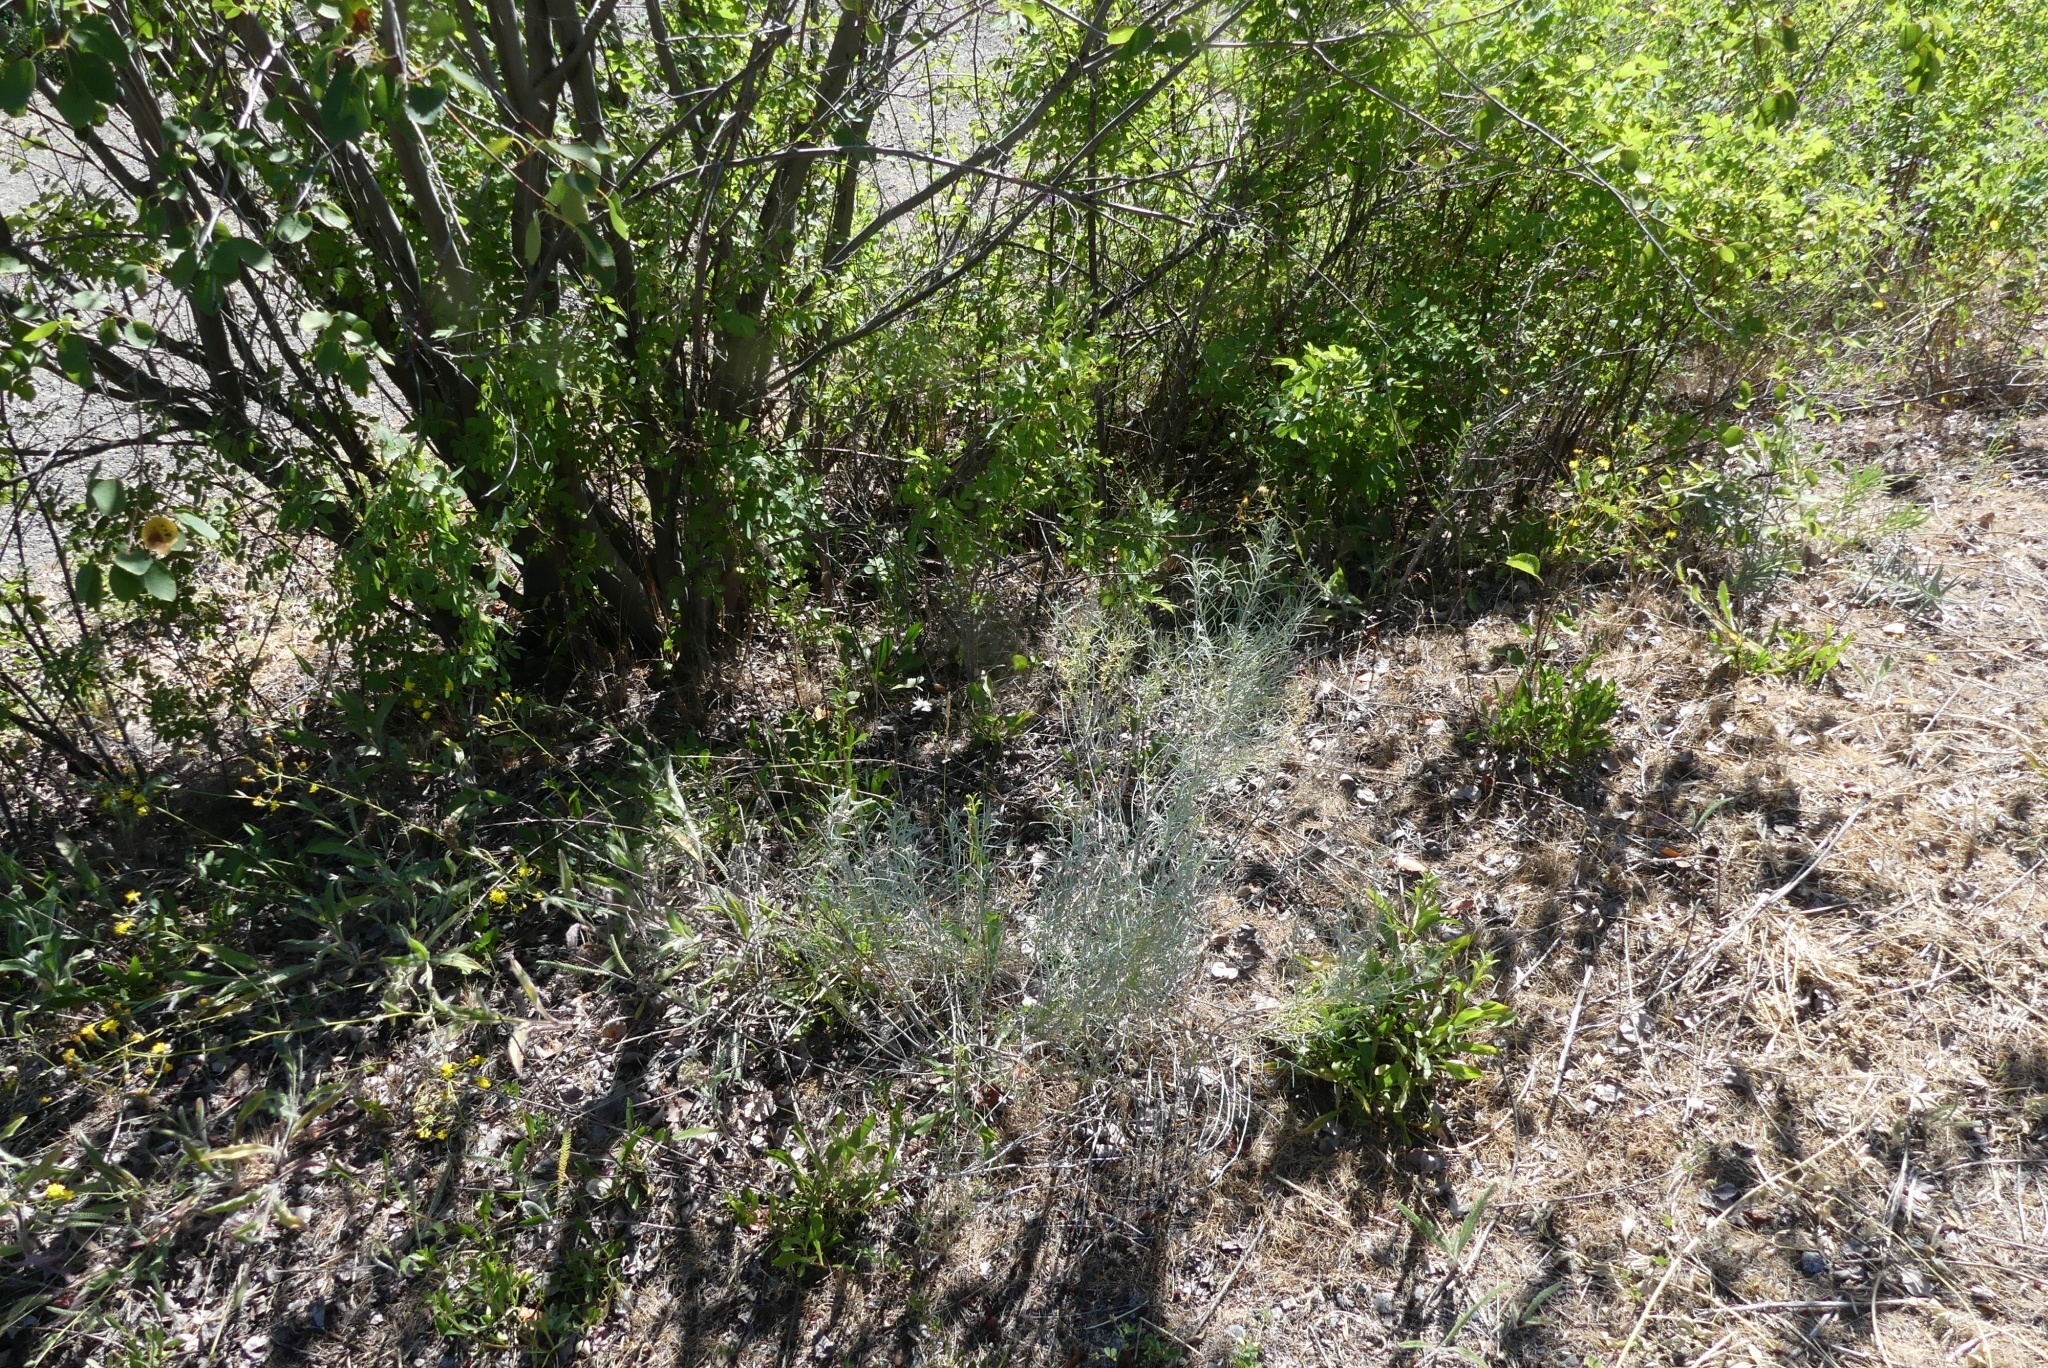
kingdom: Plantae
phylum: Tracheophyta
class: Magnoliopsida
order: Asterales
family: Asteraceae
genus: Ericameria
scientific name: Ericameria nauseosa
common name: Rubber rabbitbrush
